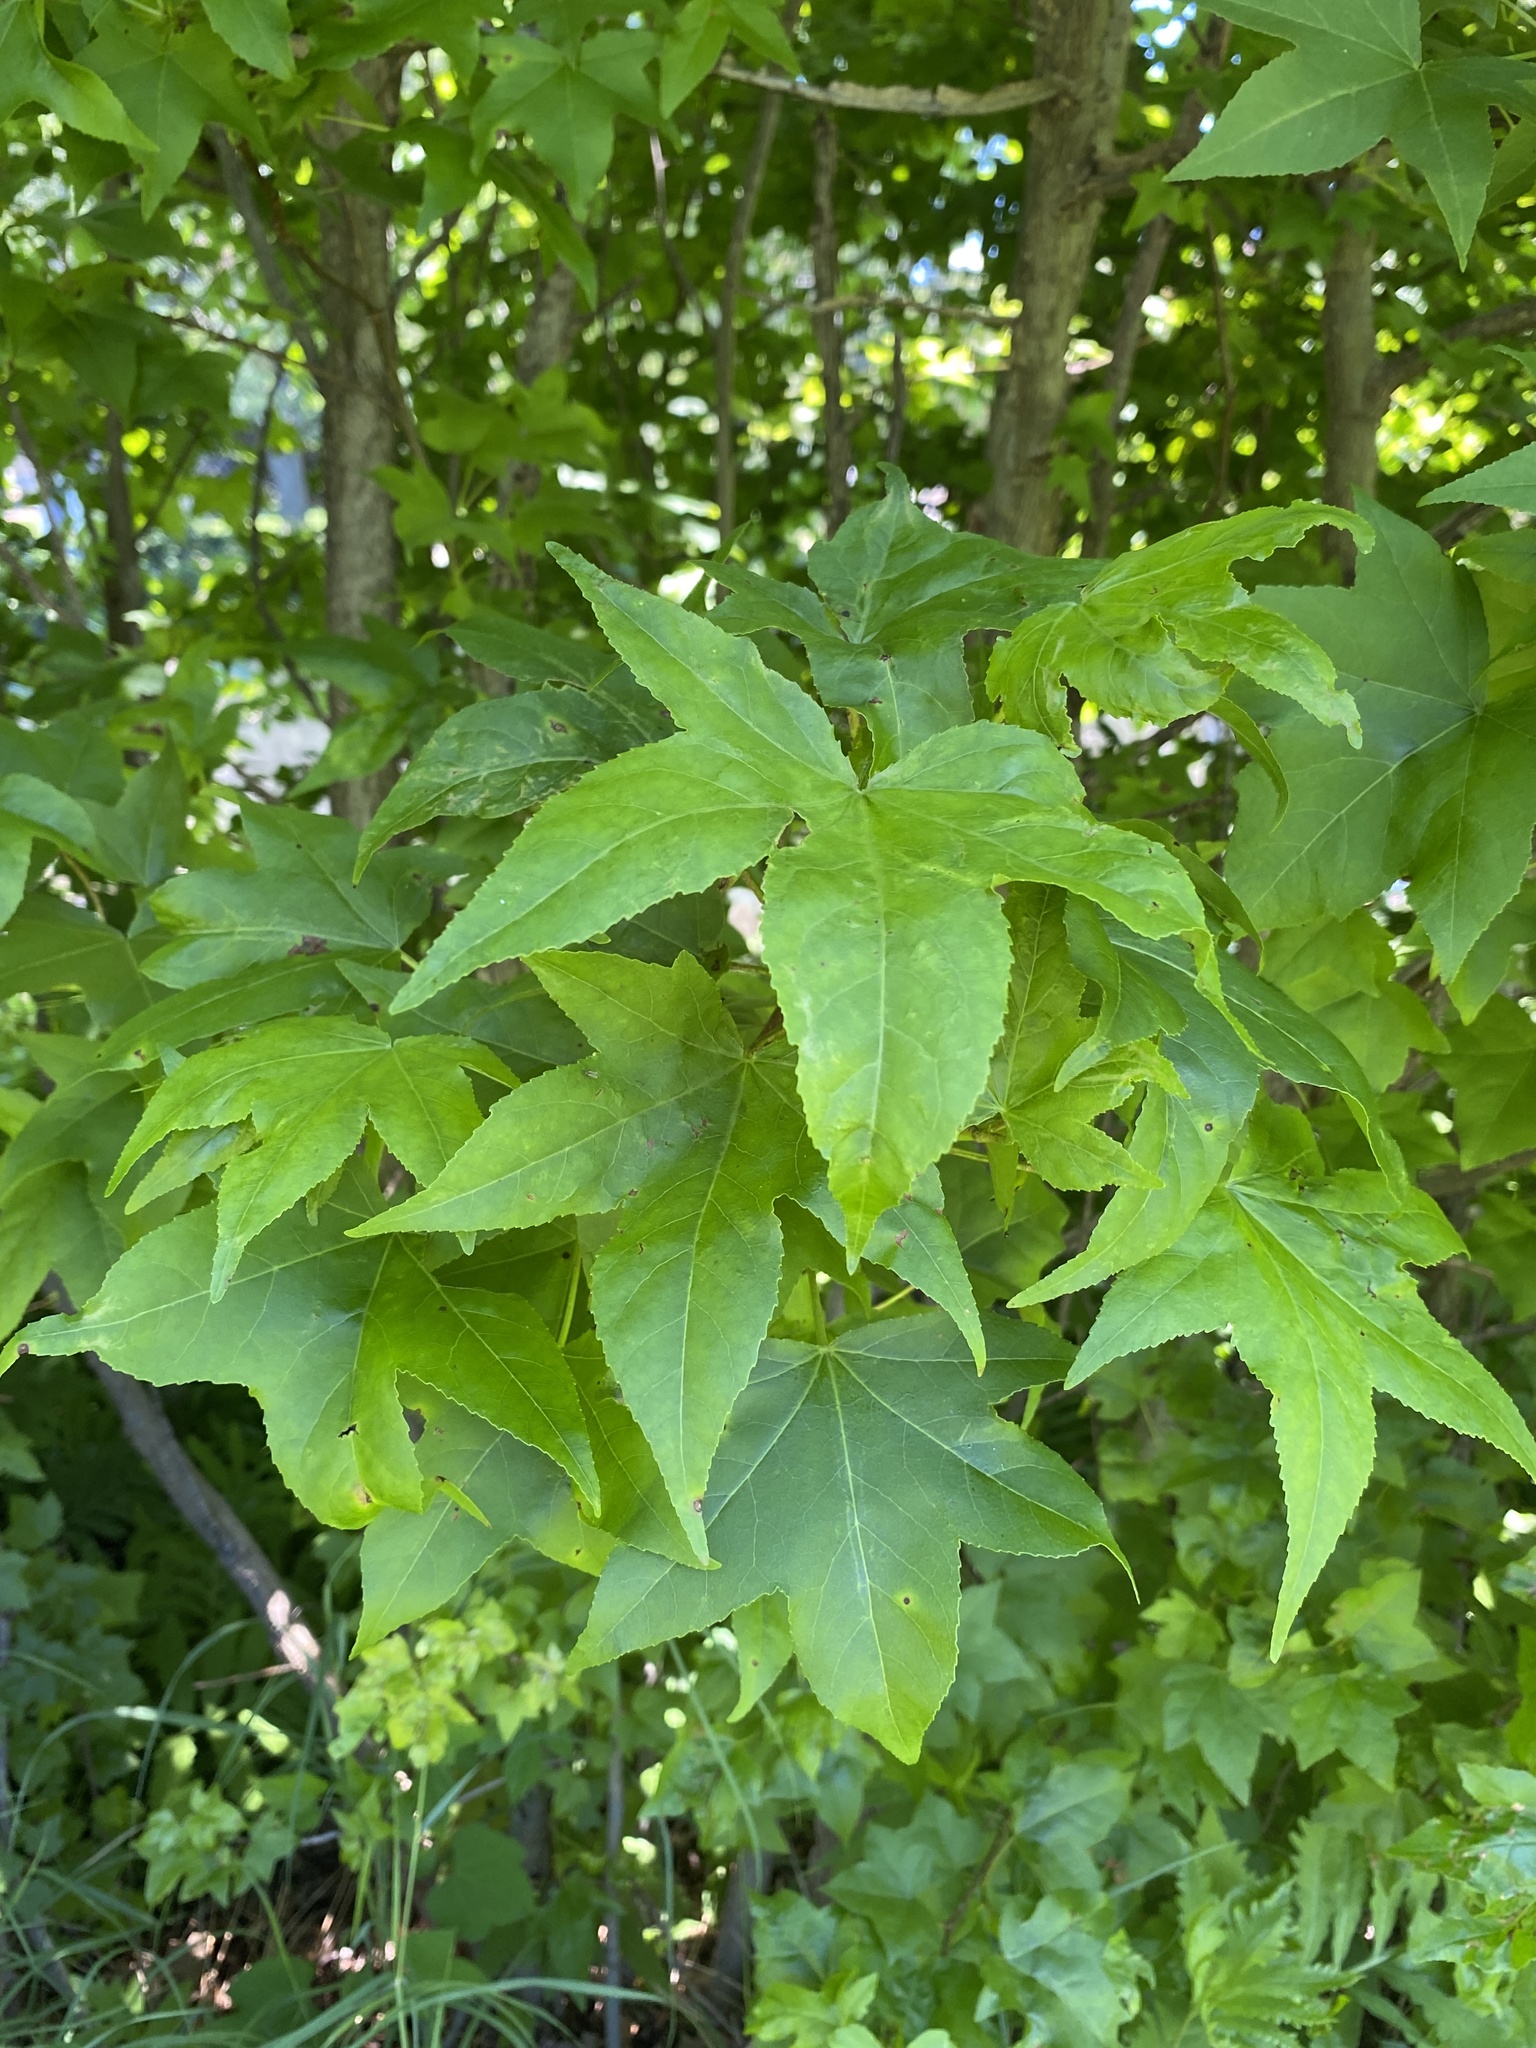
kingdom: Plantae
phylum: Tracheophyta
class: Magnoliopsida
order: Saxifragales
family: Altingiaceae
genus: Liquidambar
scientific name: Liquidambar styraciflua
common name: Sweet gum
